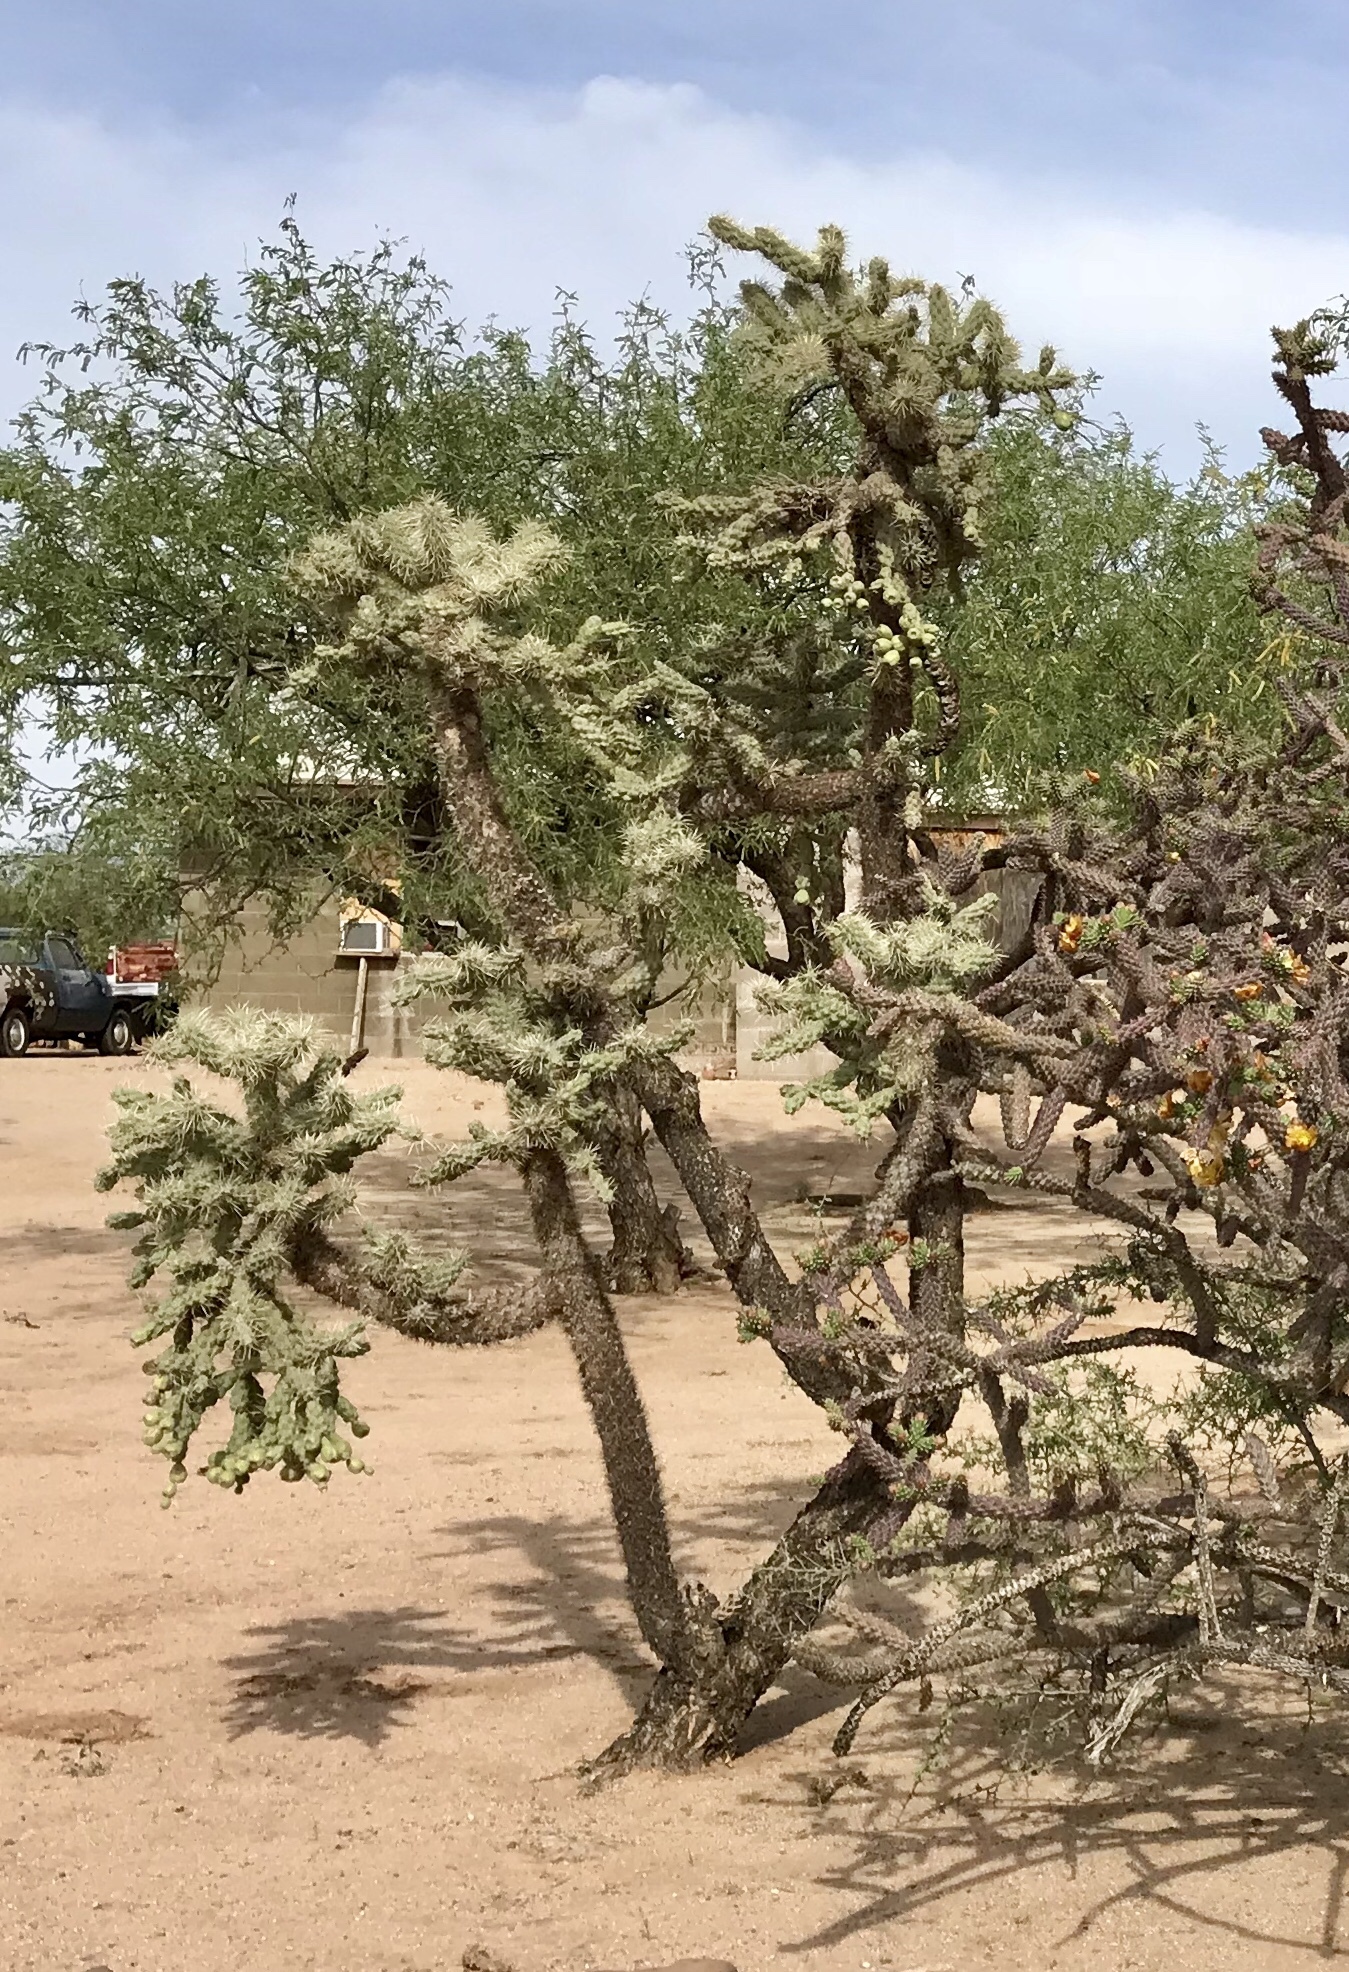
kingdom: Plantae
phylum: Tracheophyta
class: Magnoliopsida
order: Caryophyllales
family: Cactaceae
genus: Cylindropuntia
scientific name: Cylindropuntia fulgida
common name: Jumping cholla
